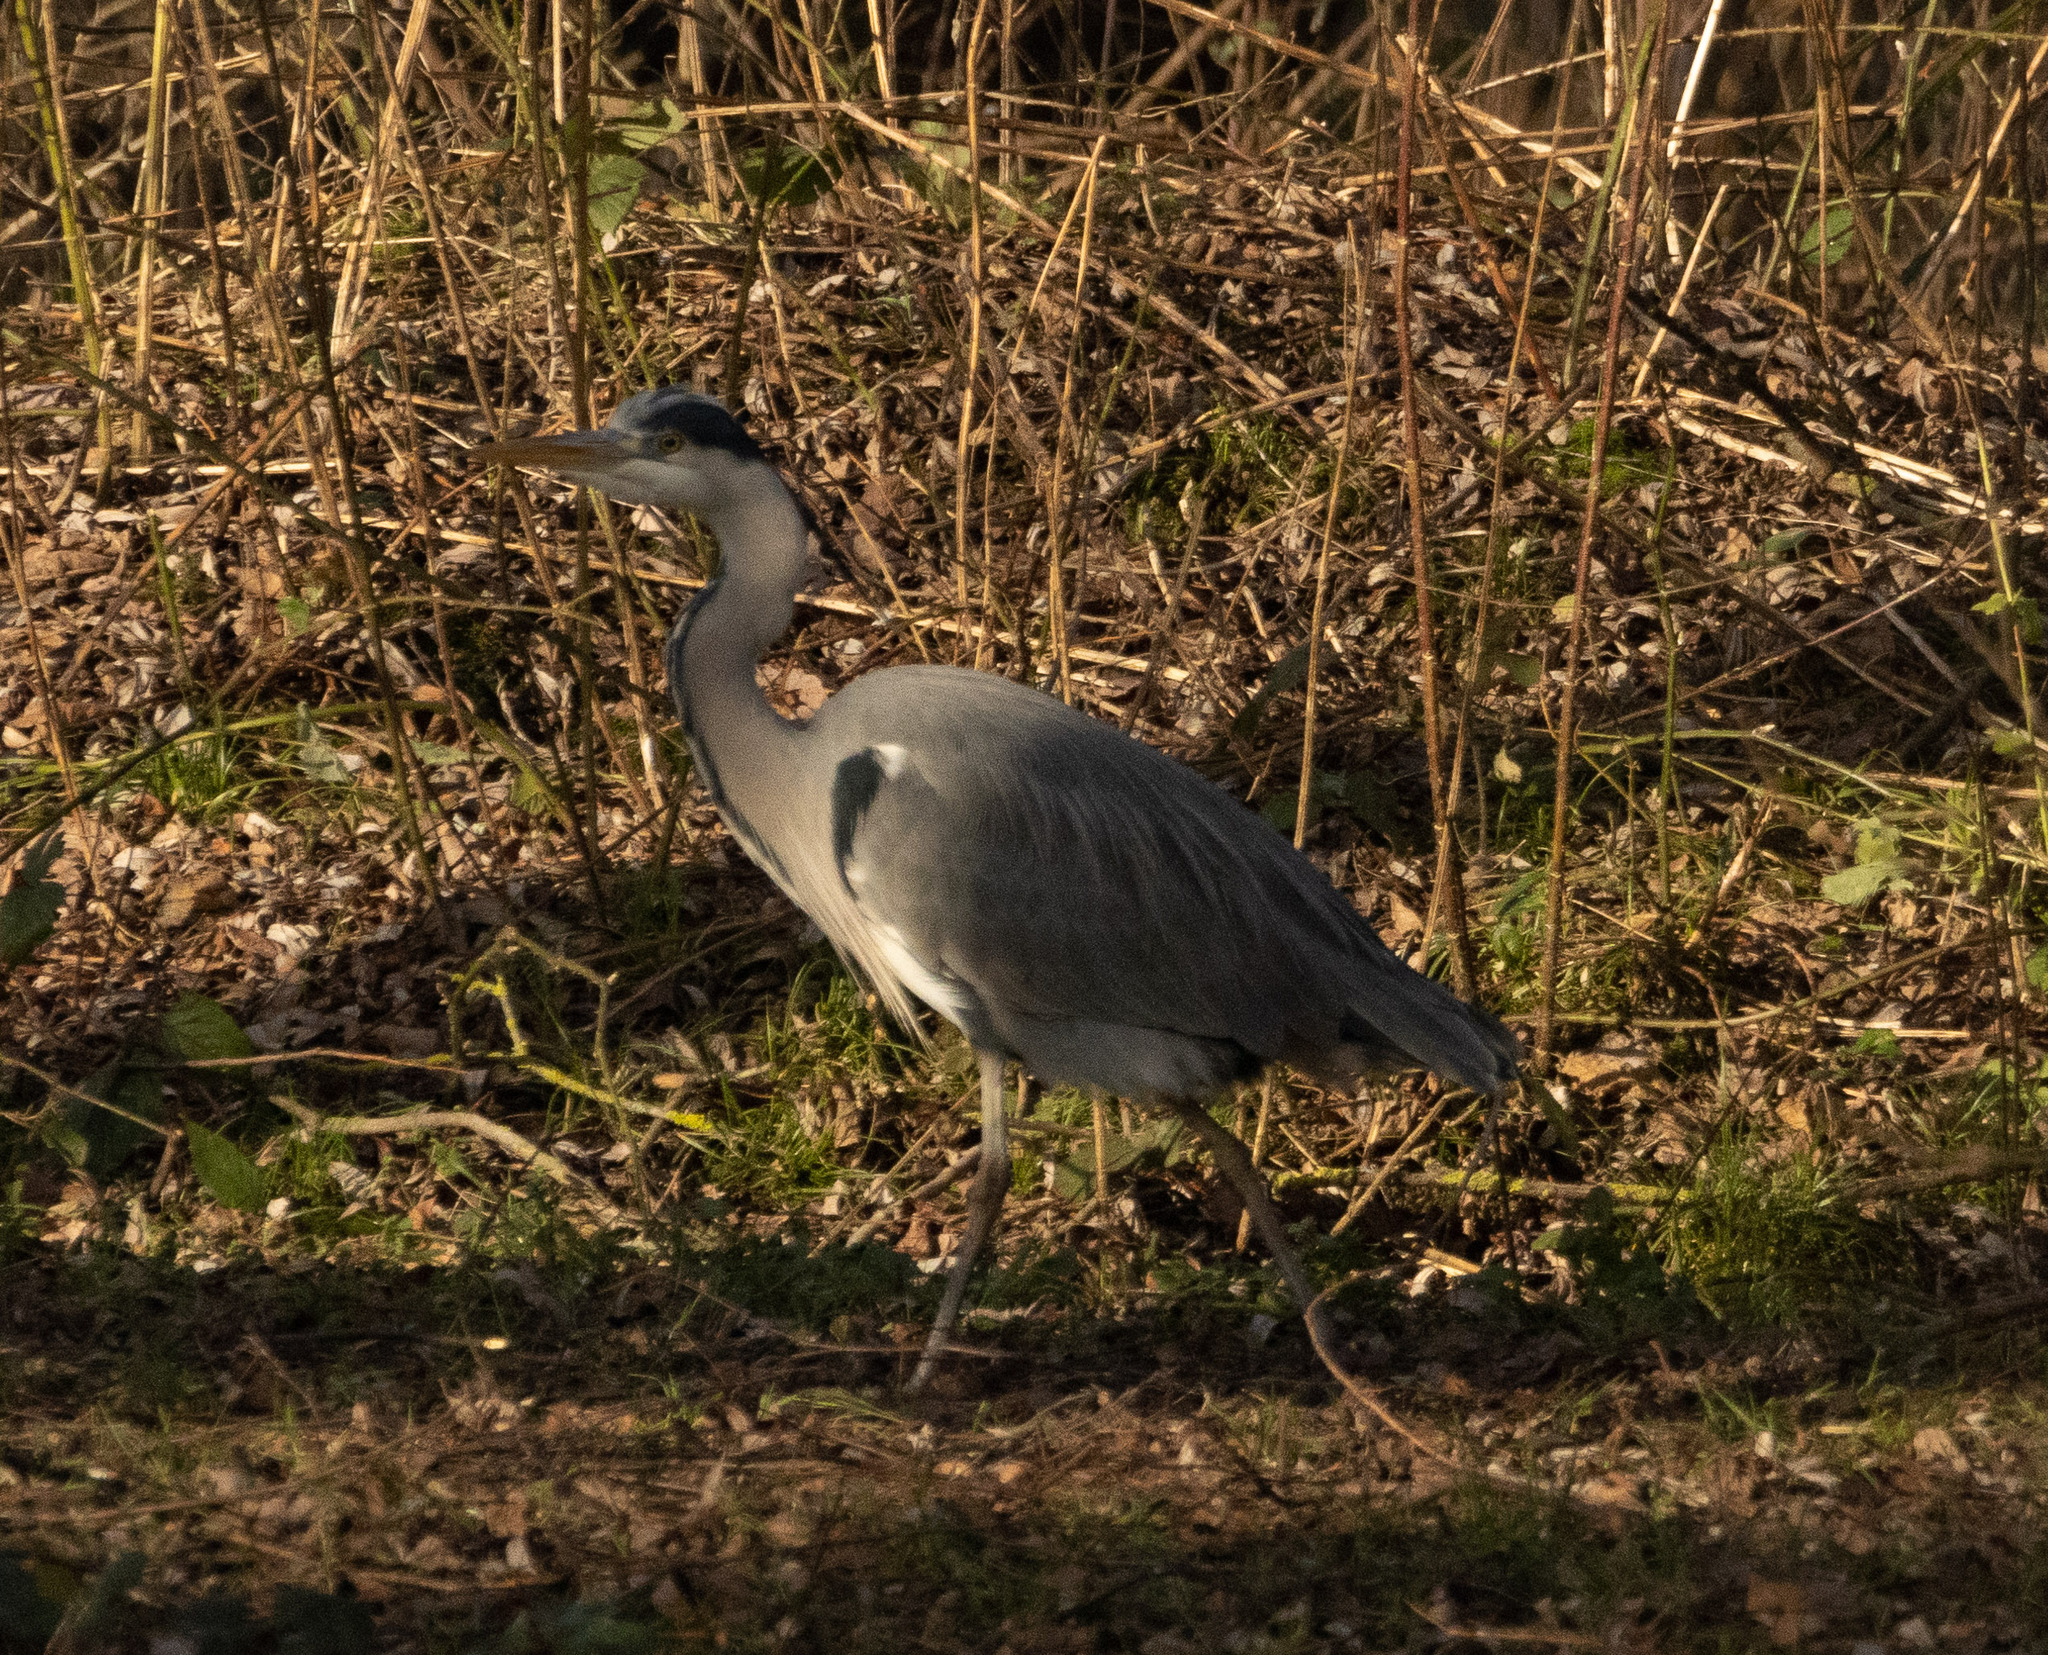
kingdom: Animalia
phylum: Chordata
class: Aves
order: Pelecaniformes
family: Ardeidae
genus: Ardea
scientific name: Ardea cinerea
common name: Grey heron
